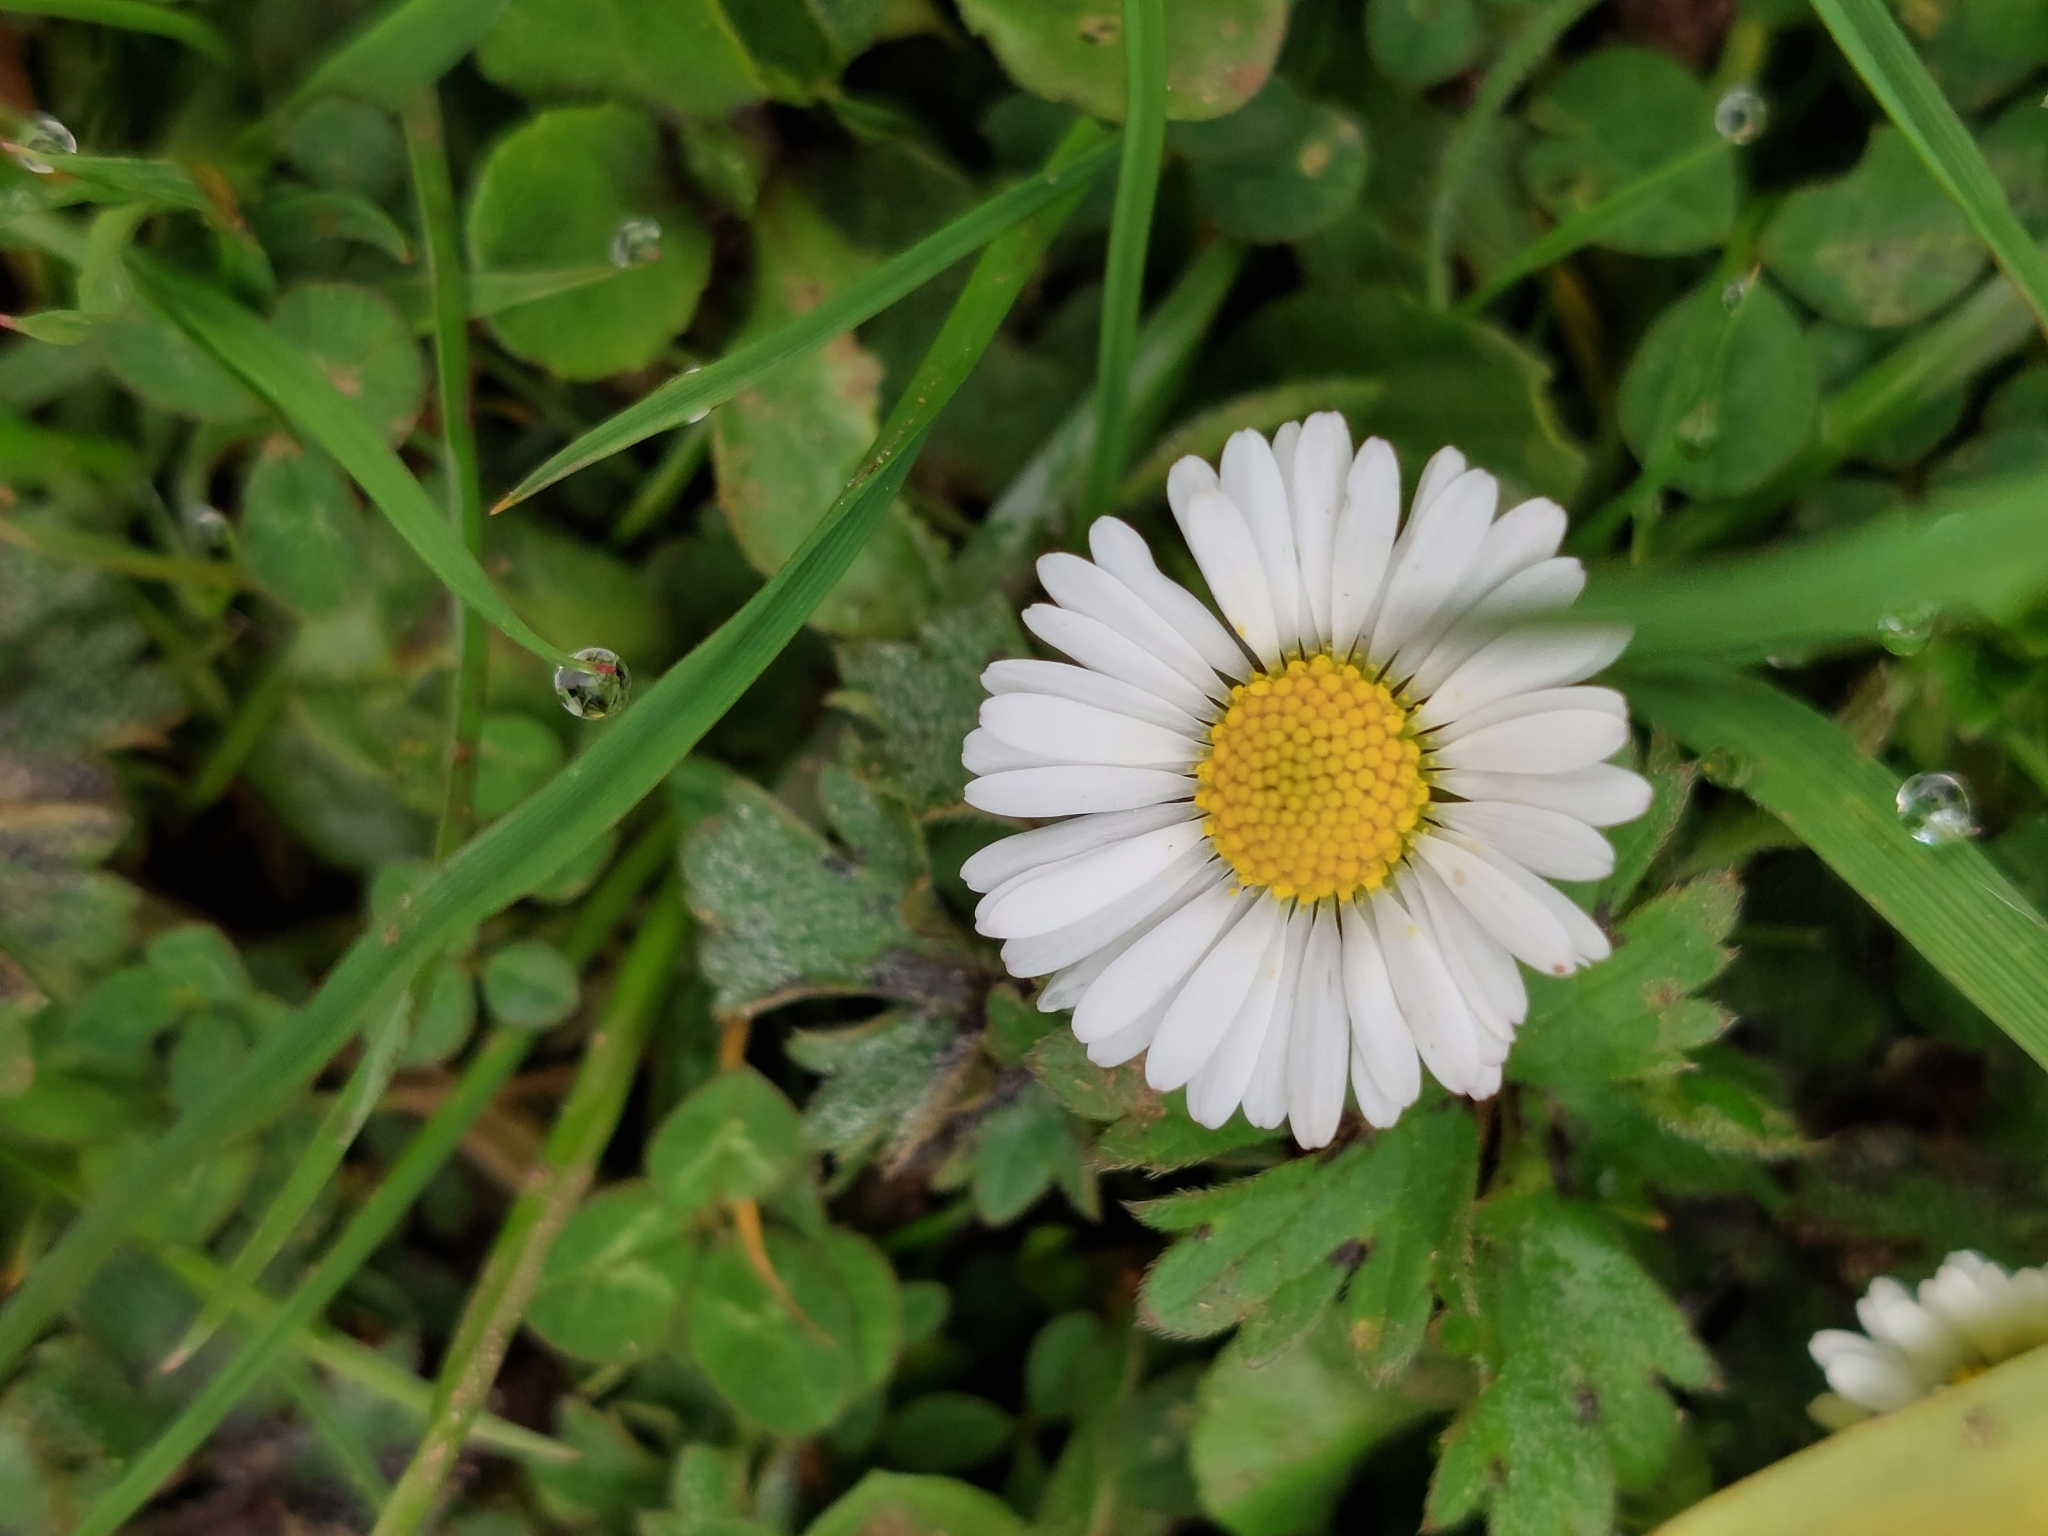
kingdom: Plantae
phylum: Tracheophyta
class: Magnoliopsida
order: Asterales
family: Asteraceae
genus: Bellis
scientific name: Bellis perennis
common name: Lawndaisy
